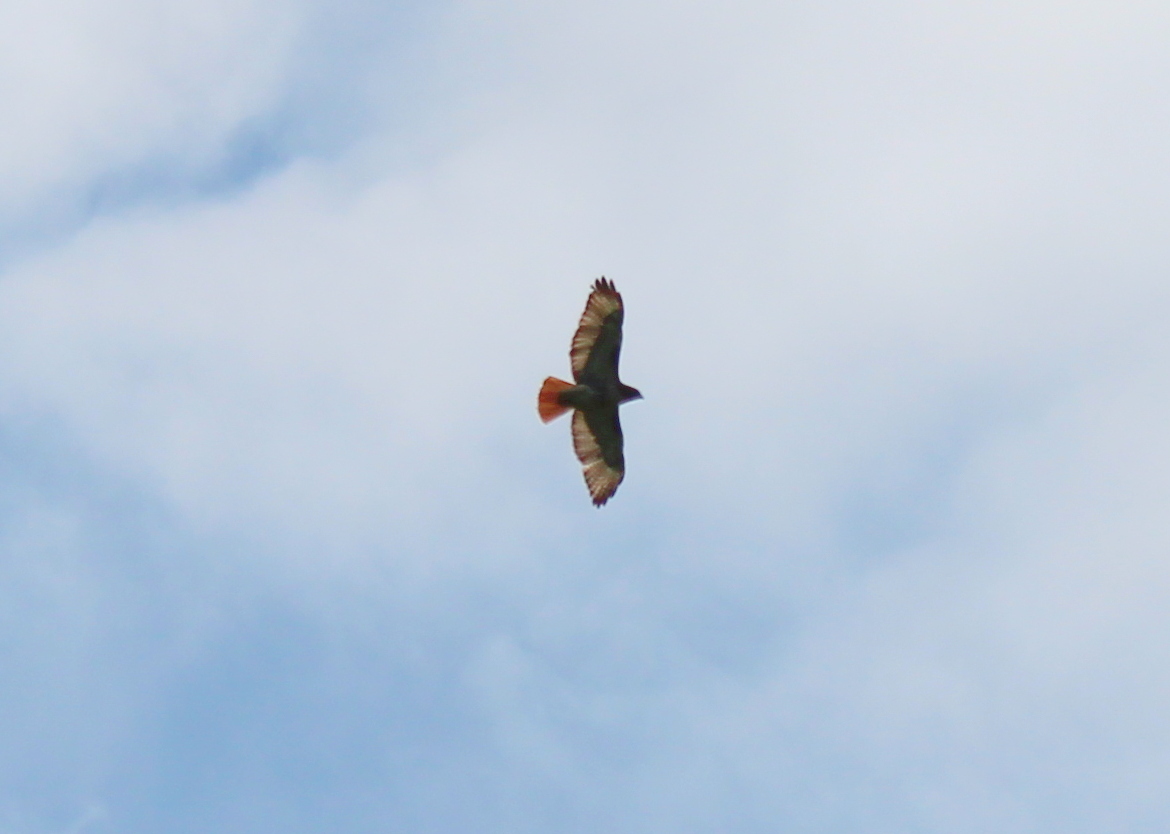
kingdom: Animalia
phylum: Chordata
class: Aves
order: Accipitriformes
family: Accipitridae
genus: Buteo
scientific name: Buteo jamaicensis
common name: Red-tailed hawk
